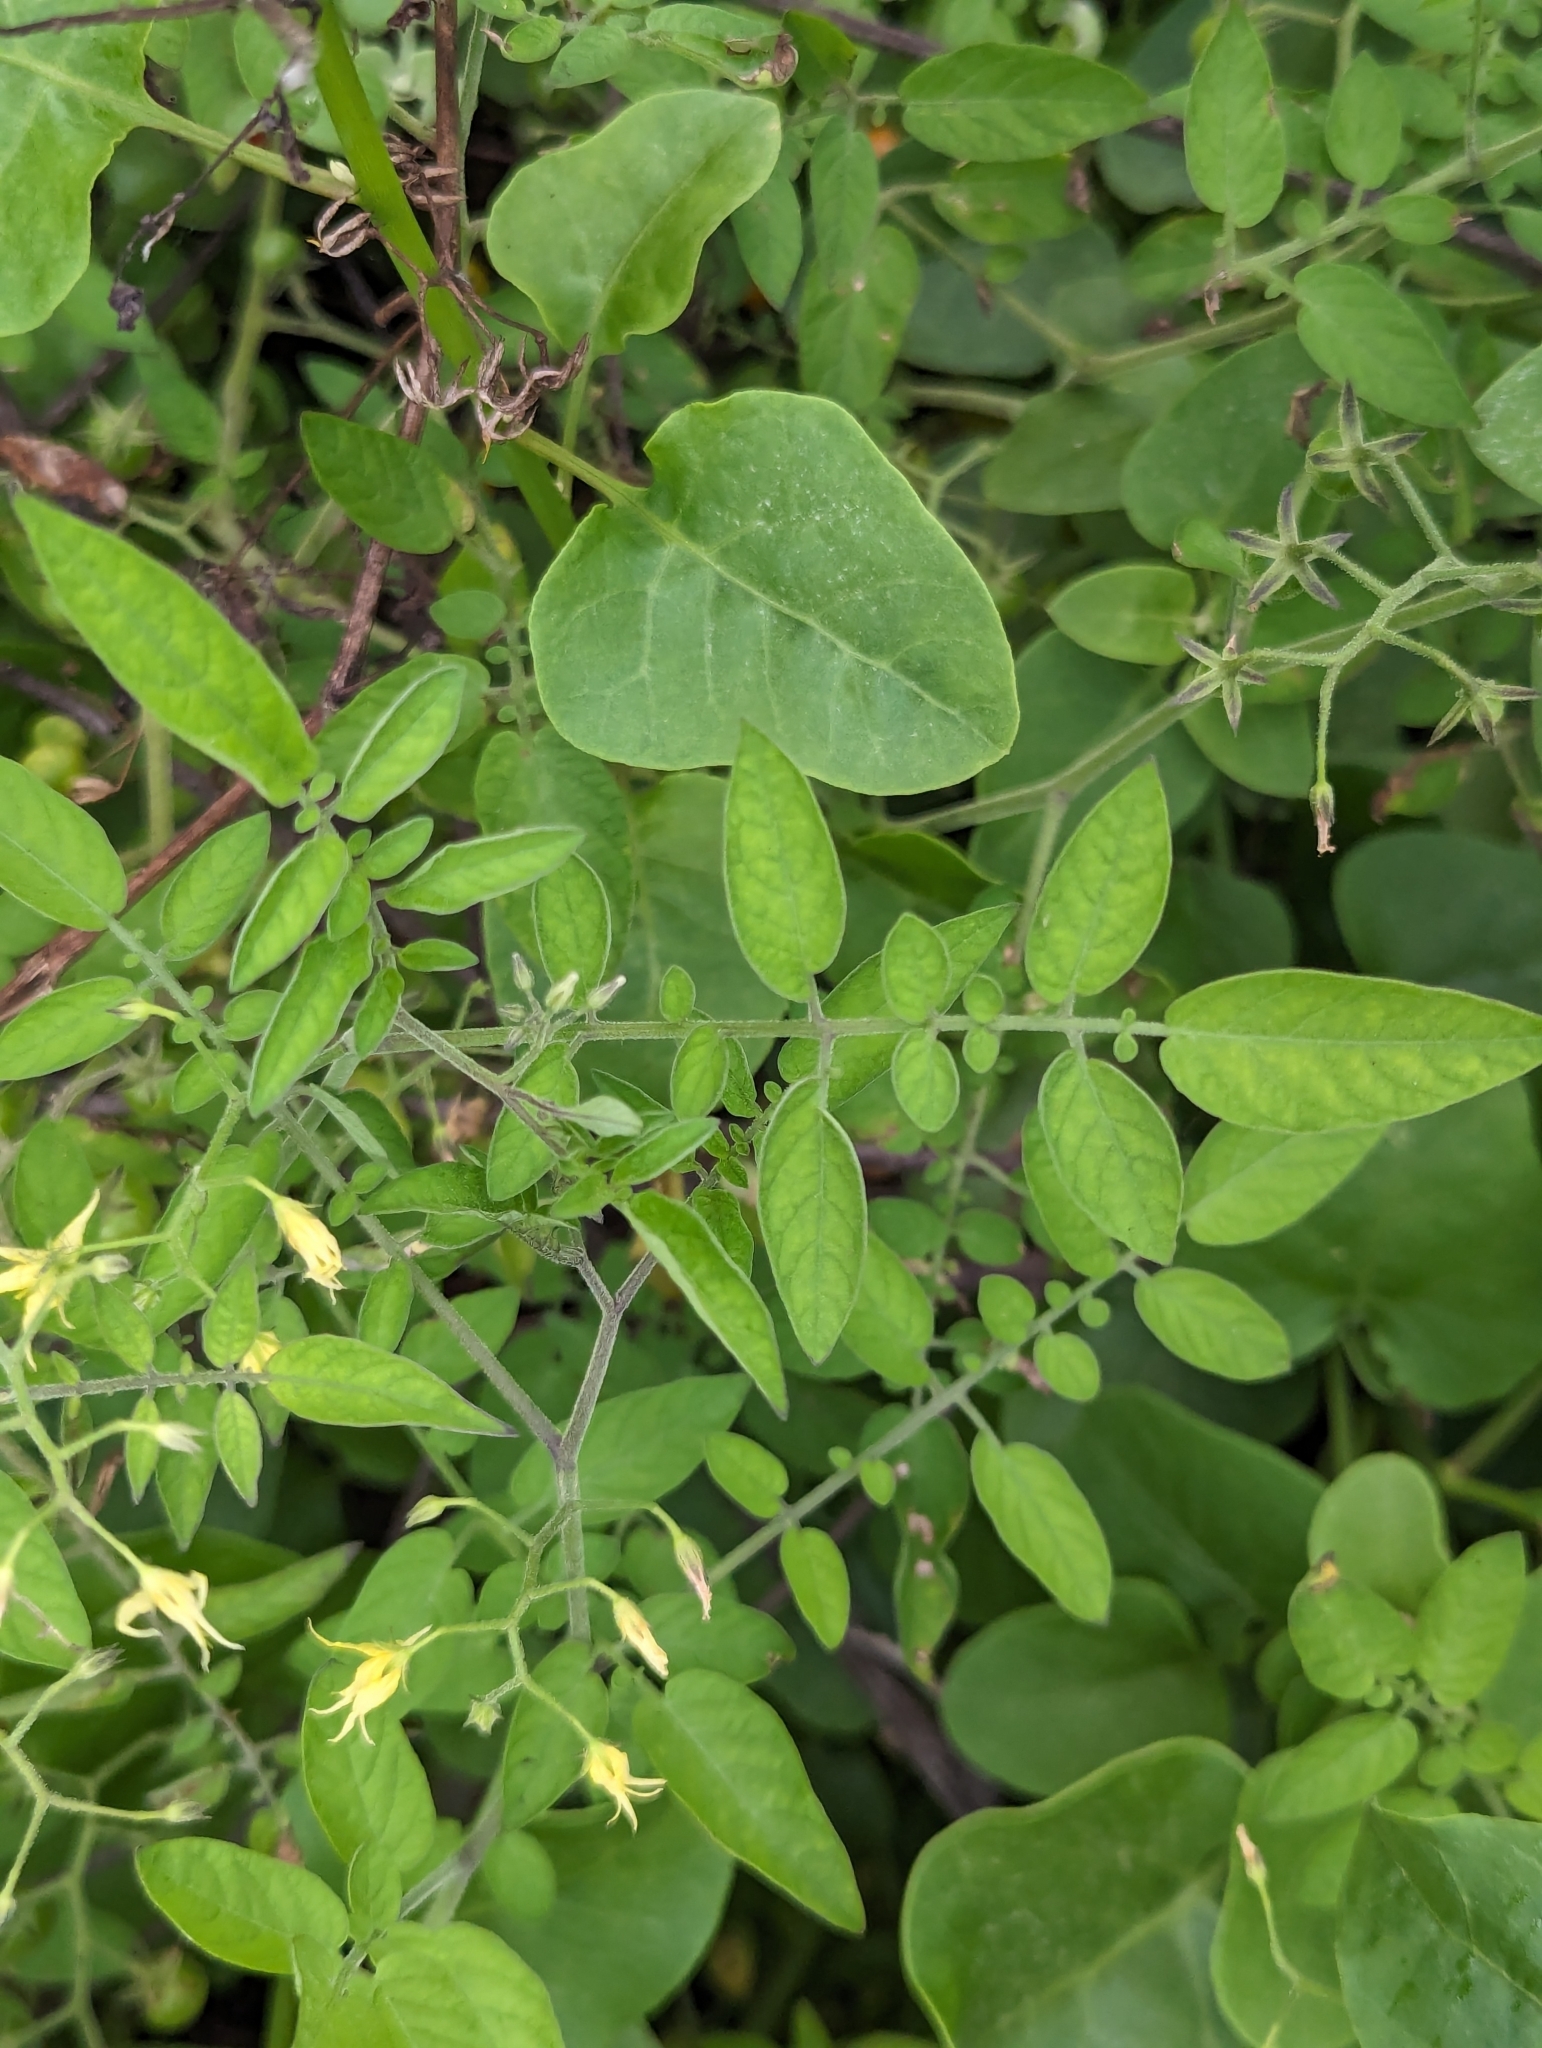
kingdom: Plantae
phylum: Tracheophyta
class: Magnoliopsida
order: Solanales
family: Solanaceae
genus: Solanum
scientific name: Solanum pimpinellifolium
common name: Currant-tomato
